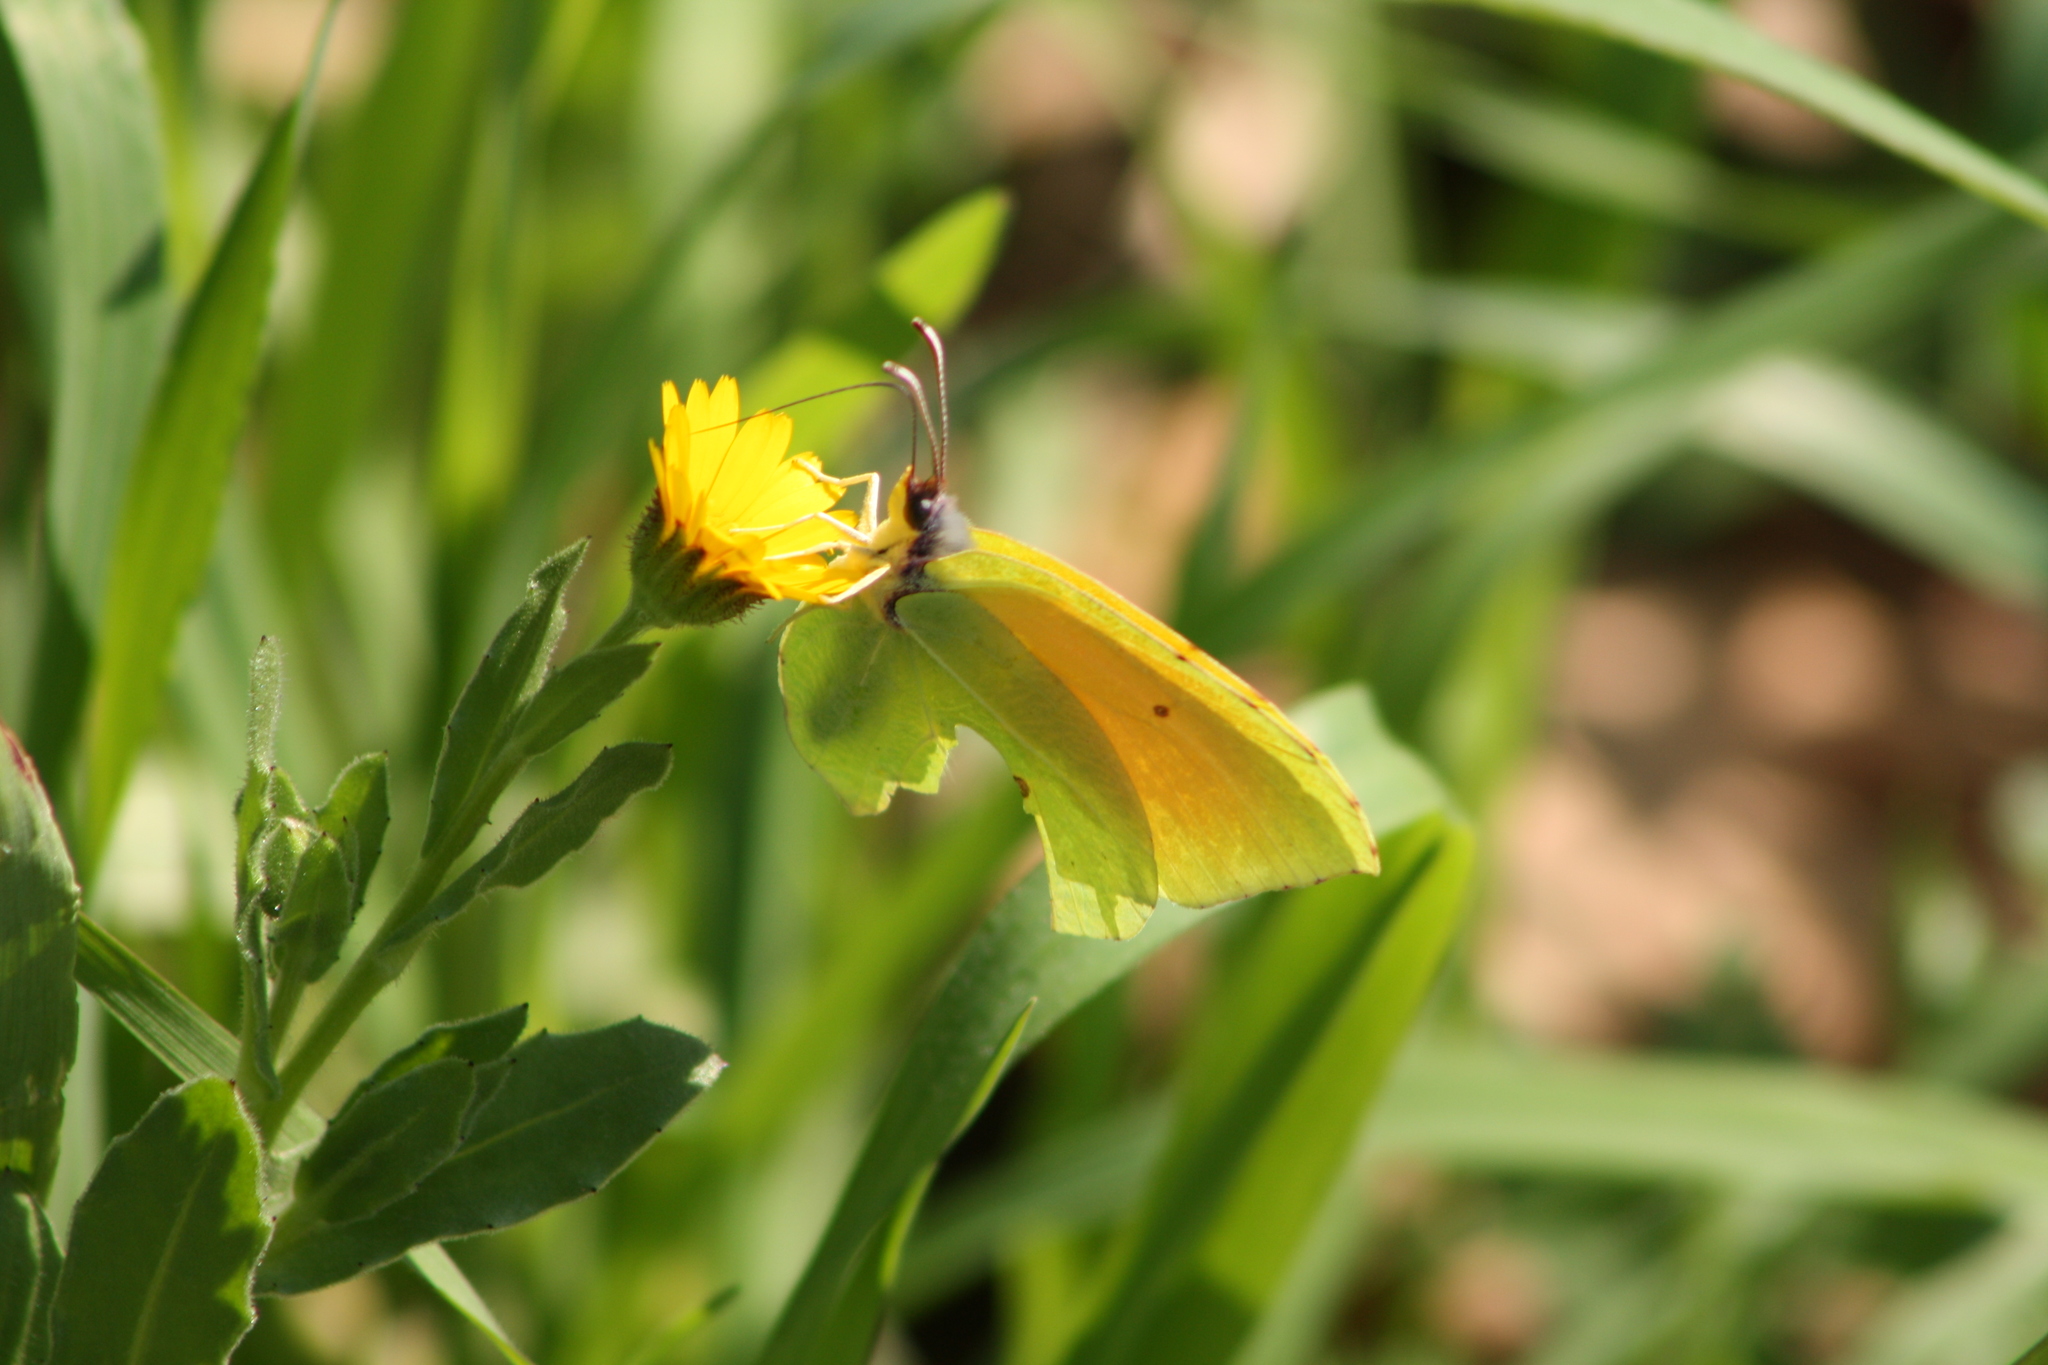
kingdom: Animalia
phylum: Arthropoda
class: Insecta
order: Lepidoptera
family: Pieridae
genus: Gonepteryx
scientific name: Gonepteryx cleopatra
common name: Cleopatra
